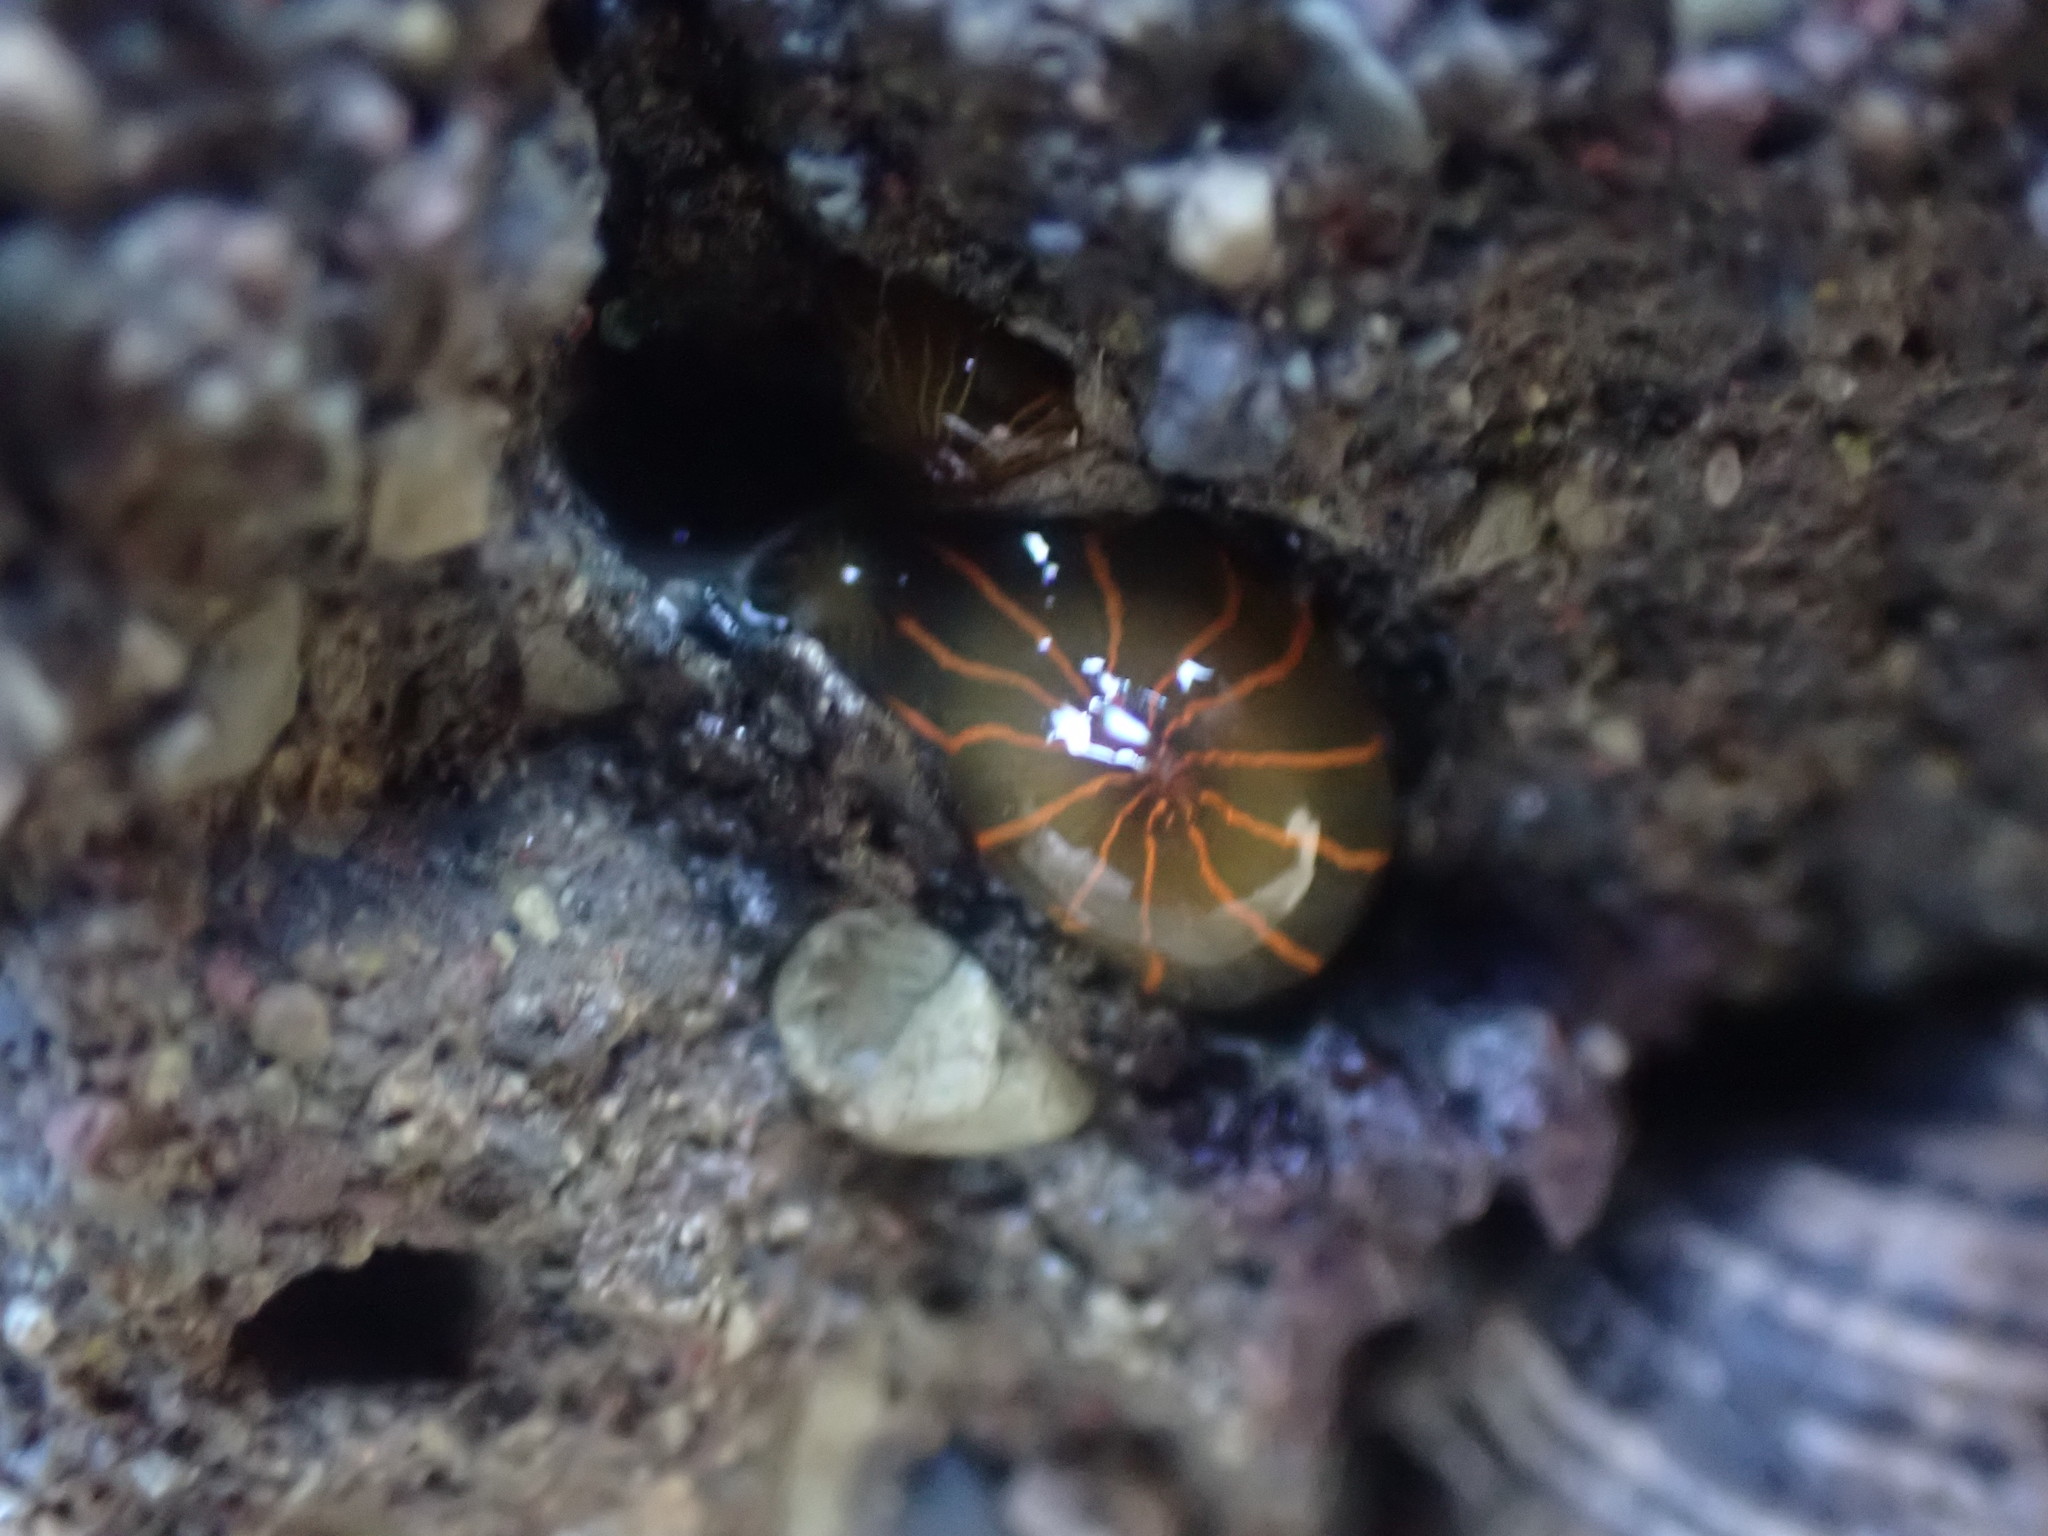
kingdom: Animalia
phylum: Cnidaria
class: Anthozoa
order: Actiniaria
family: Diadumenidae
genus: Diadumene
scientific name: Diadumene lineata
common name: Orange-striped anemone
